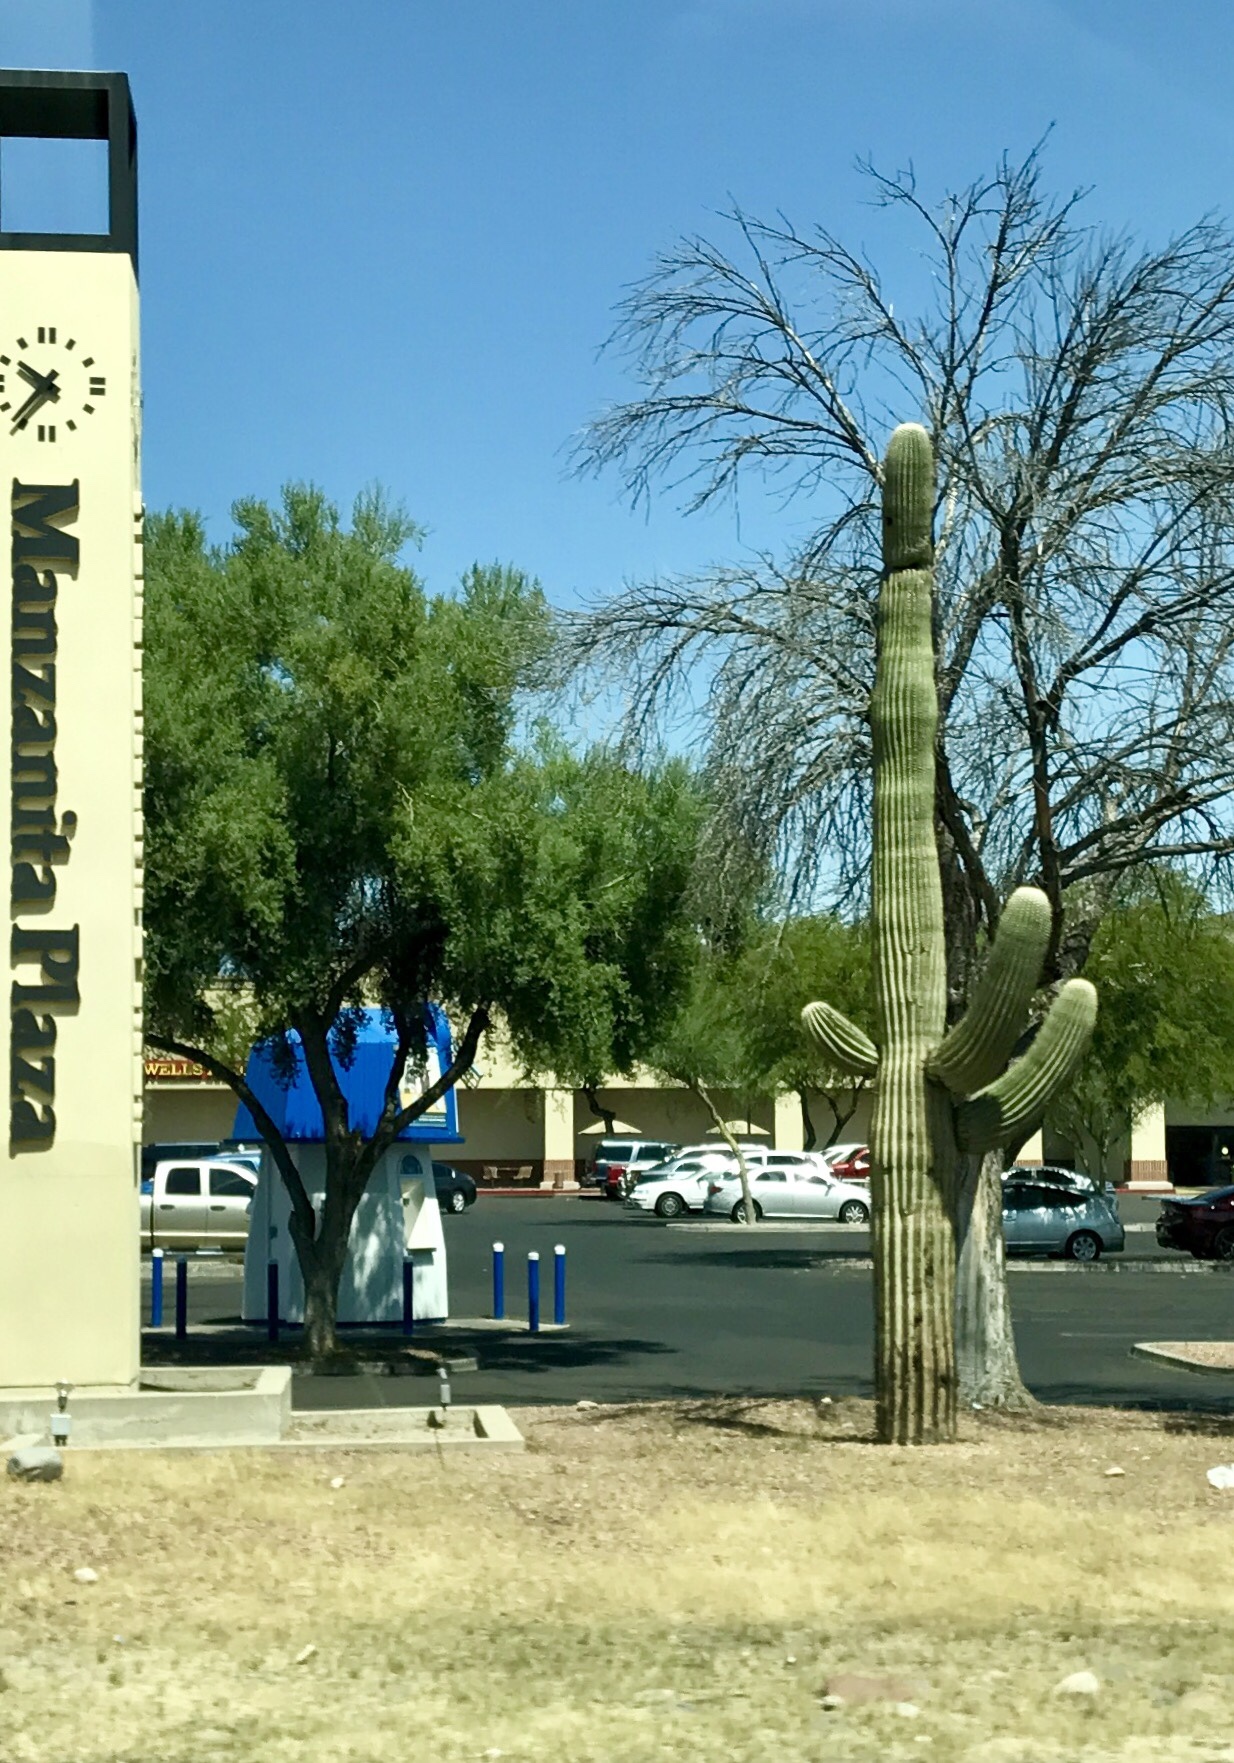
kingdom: Plantae
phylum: Tracheophyta
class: Magnoliopsida
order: Caryophyllales
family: Cactaceae
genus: Carnegiea
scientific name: Carnegiea gigantea
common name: Saguaro
